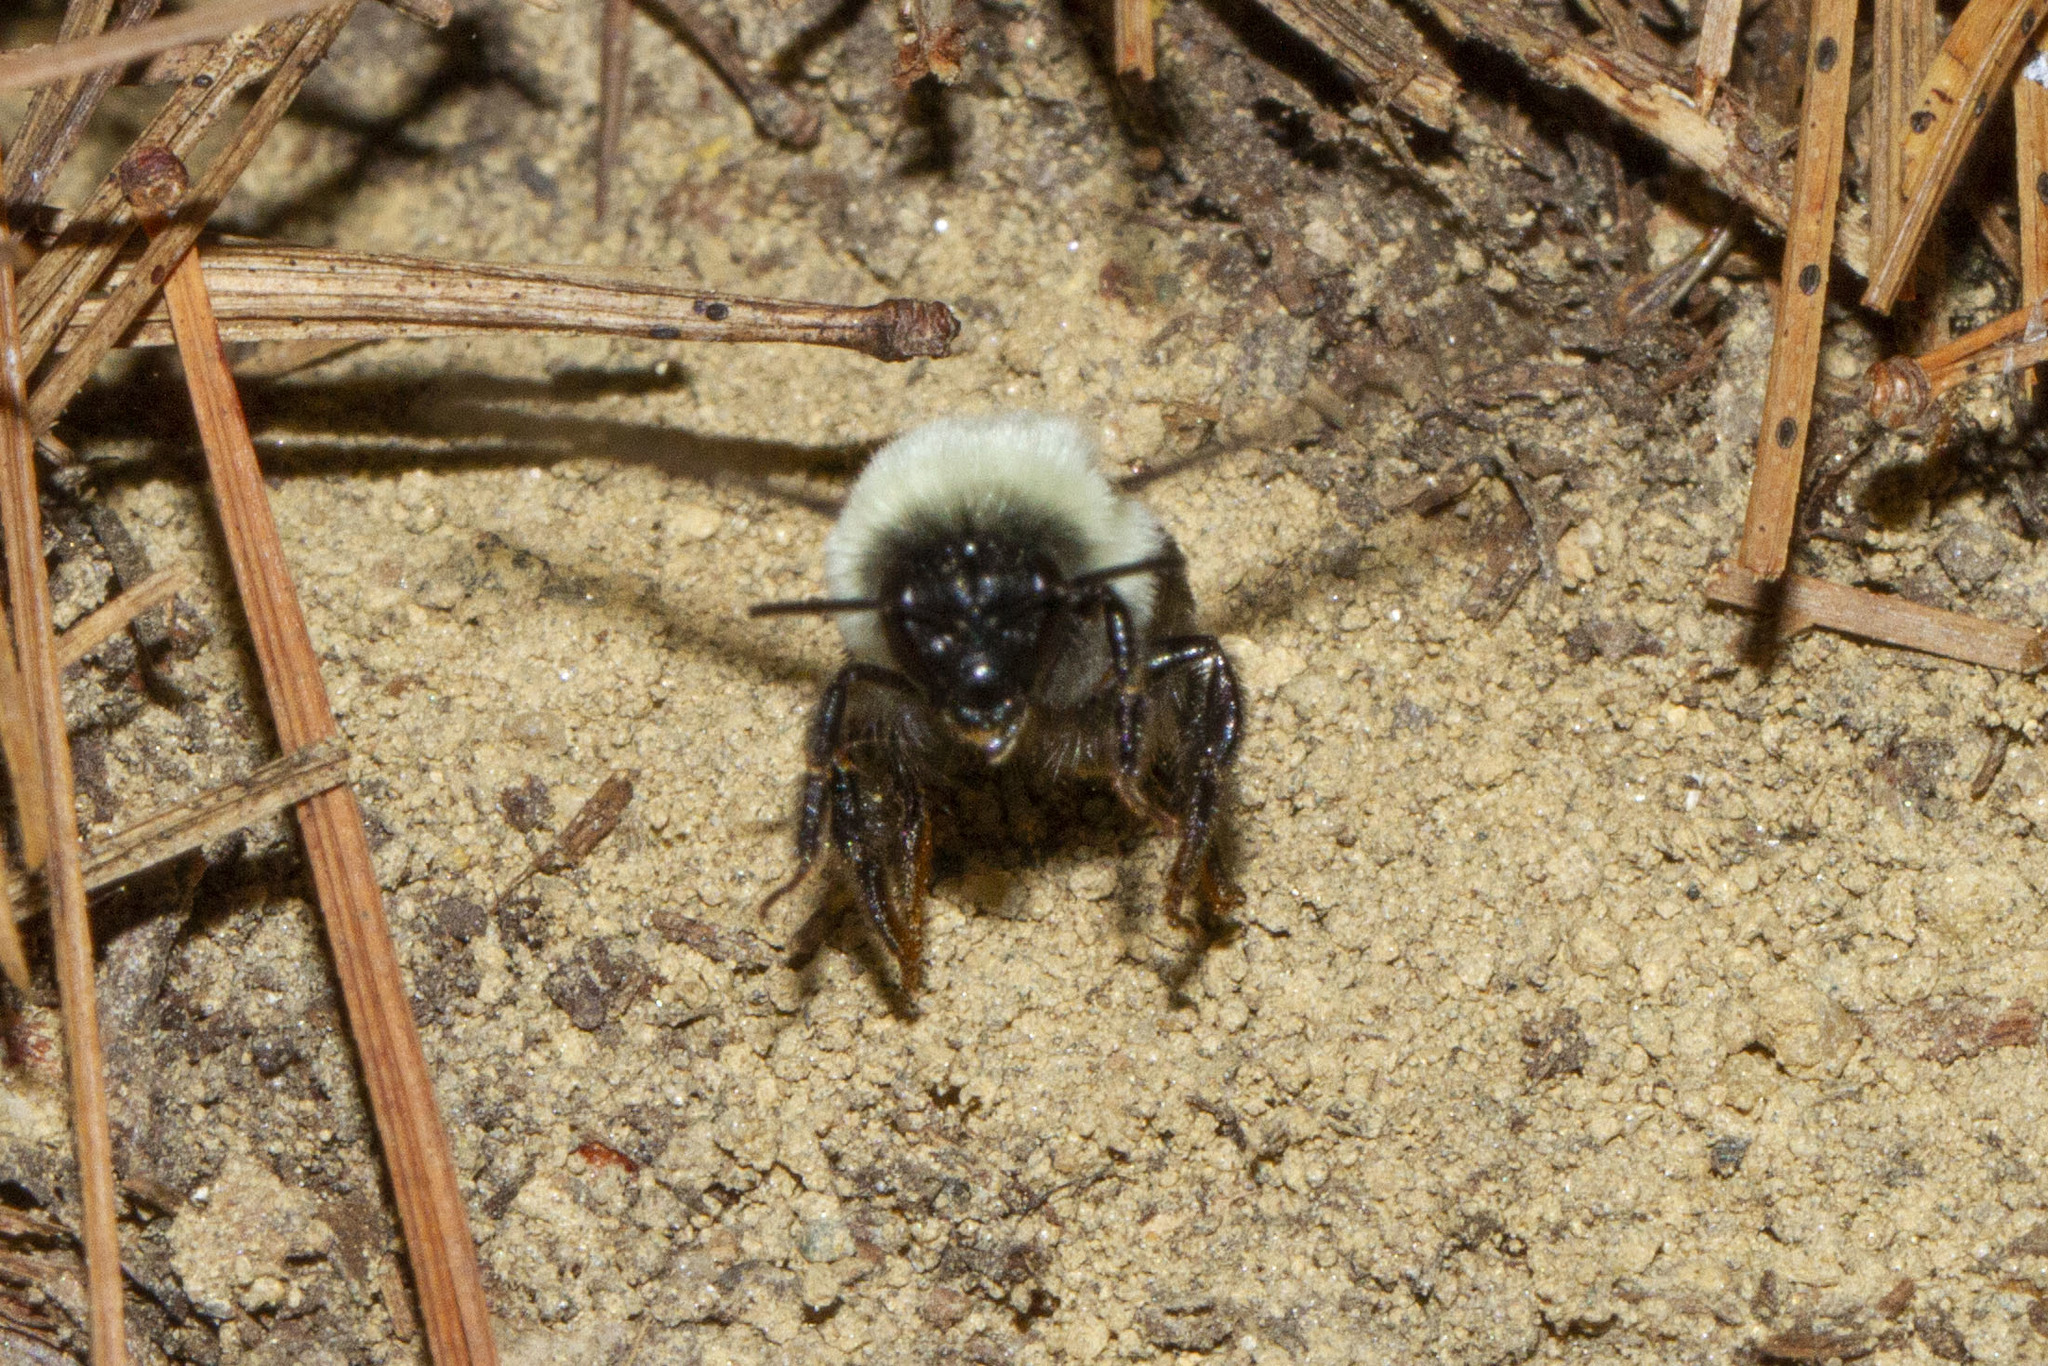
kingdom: Animalia
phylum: Arthropoda
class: Insecta
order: Hymenoptera
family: Apidae
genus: Bombus
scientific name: Bombus impatiens
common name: Common eastern bumble bee
